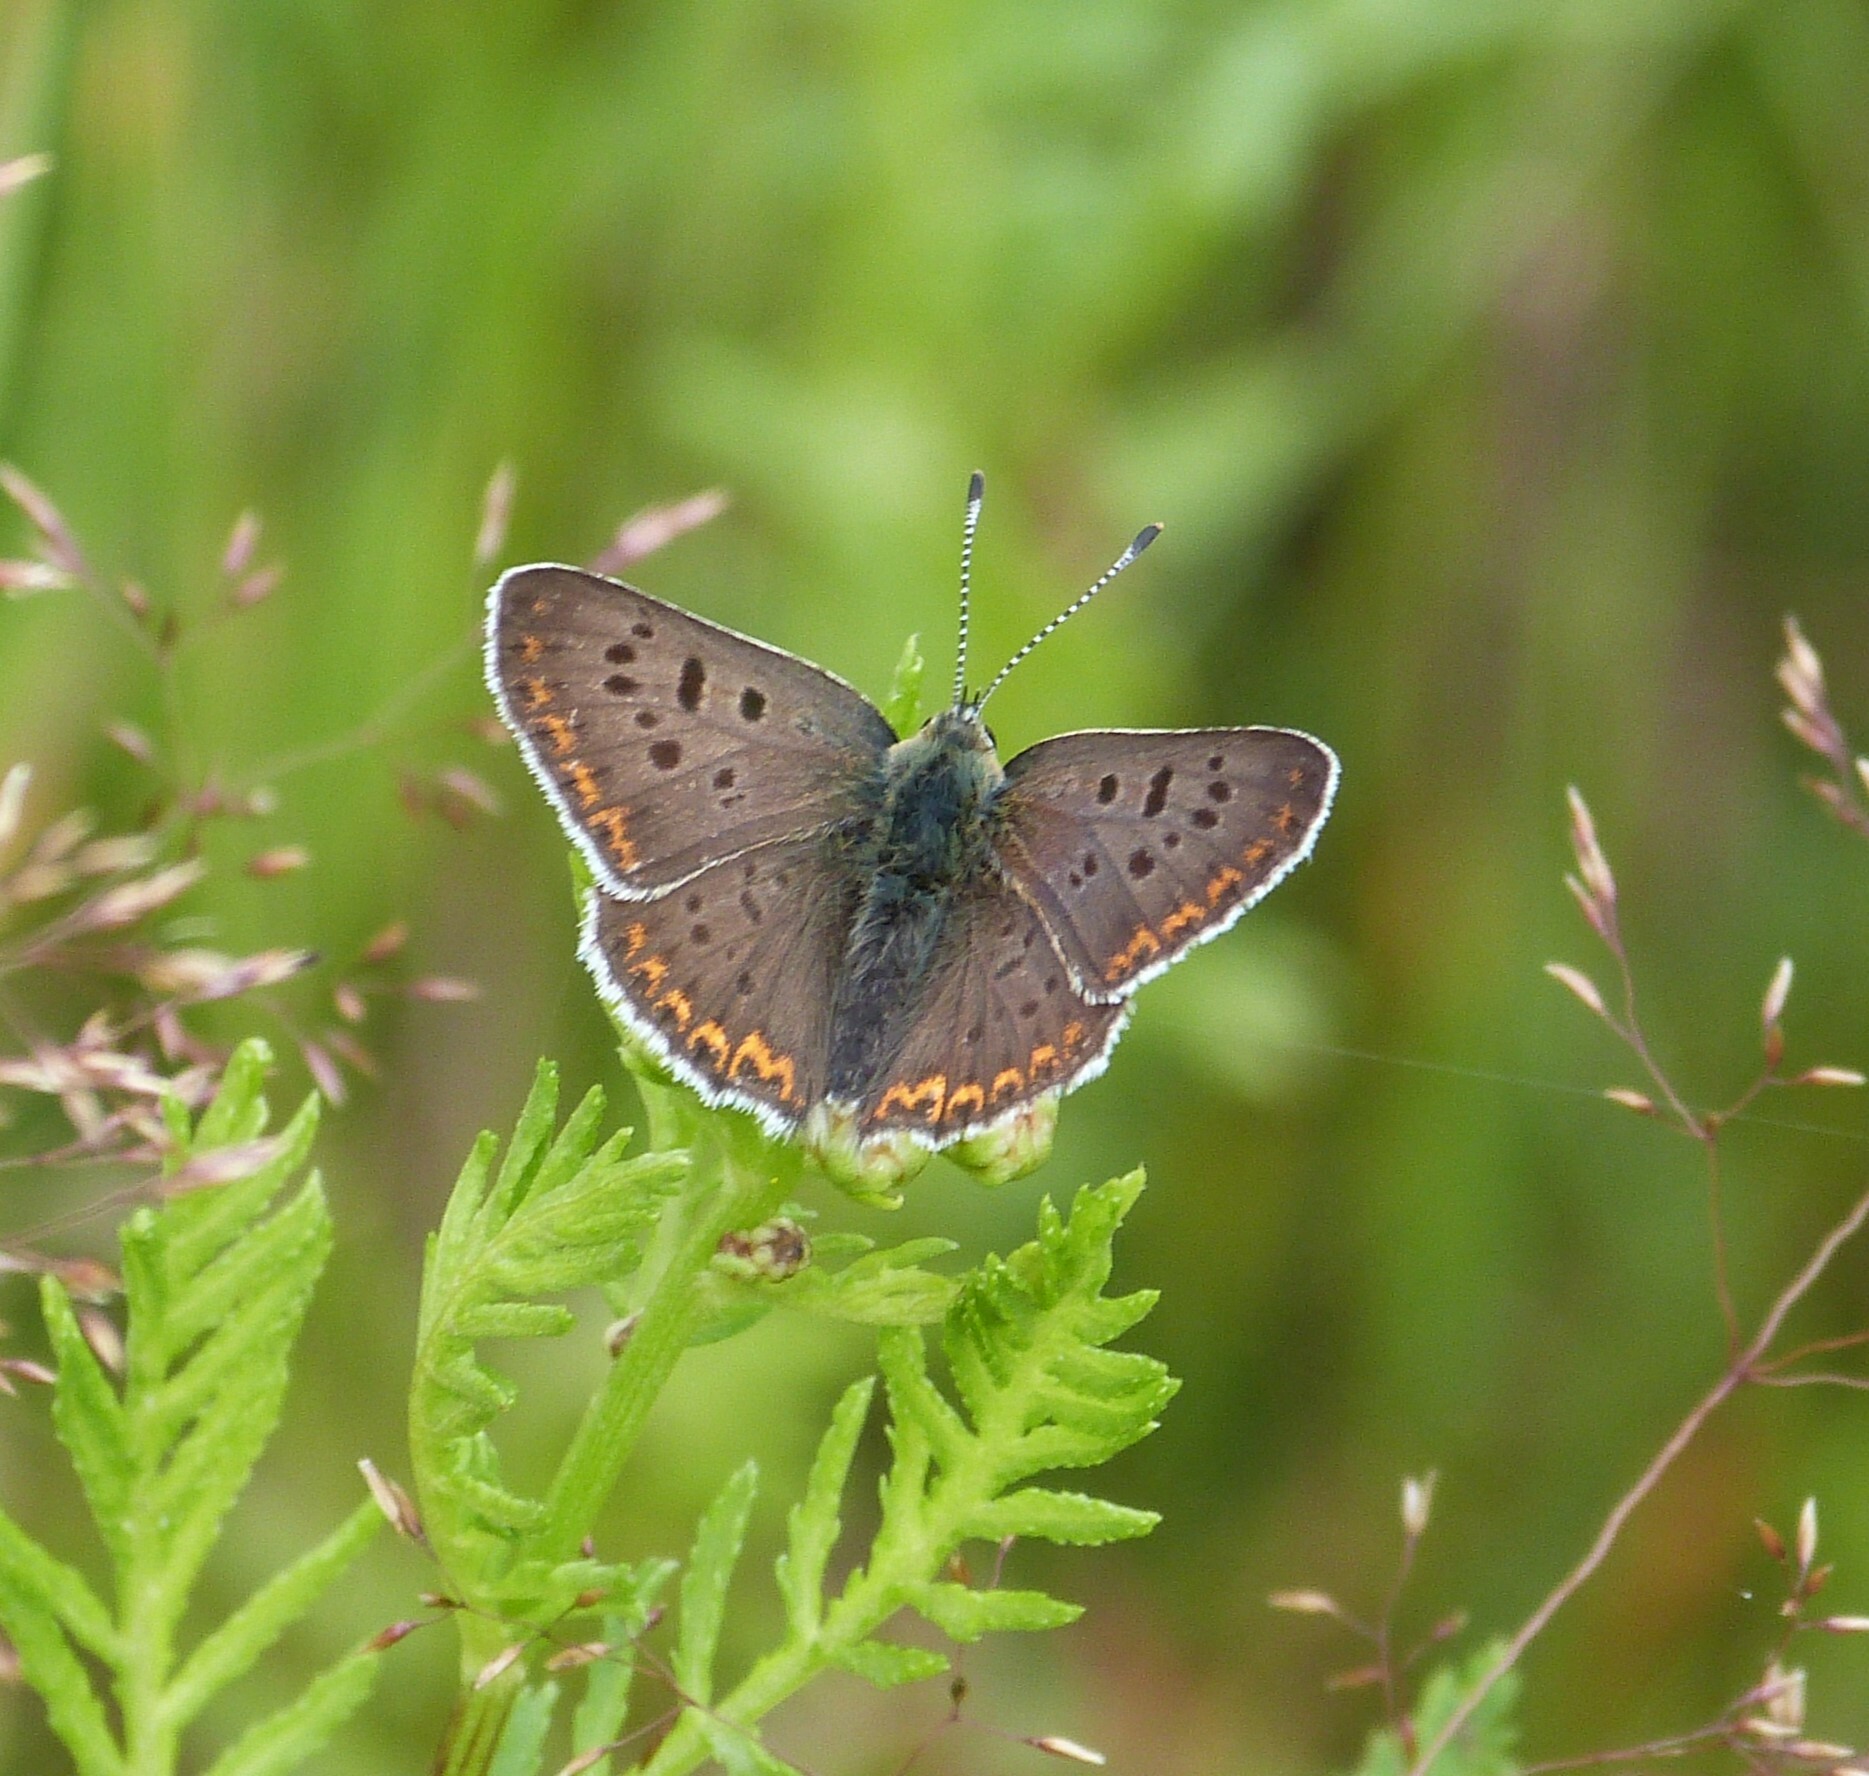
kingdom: Animalia
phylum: Arthropoda
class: Insecta
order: Lepidoptera
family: Lycaenidae
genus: Loweia
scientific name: Loweia tityrus
